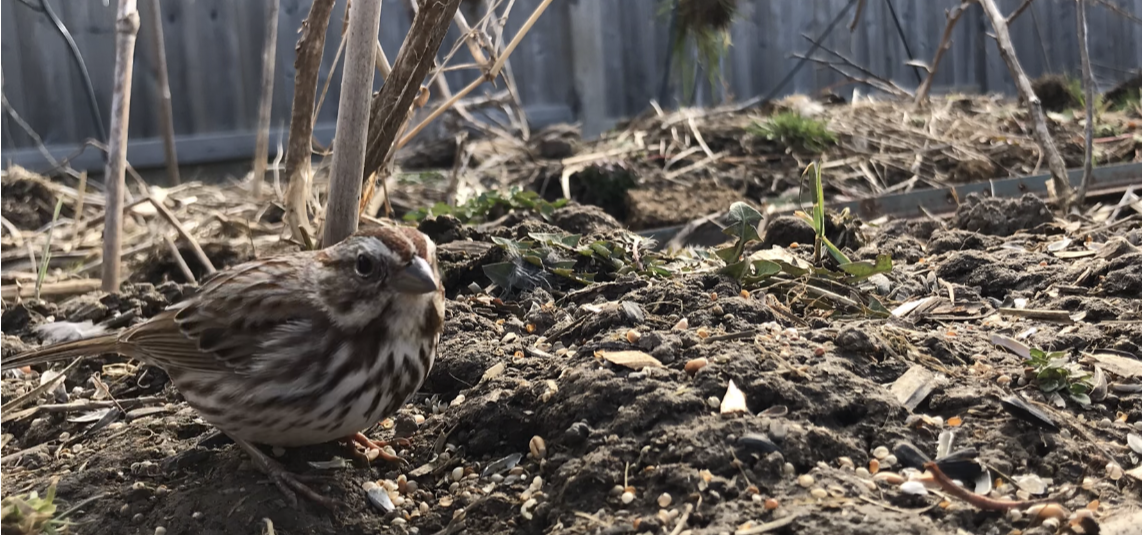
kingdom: Animalia
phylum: Chordata
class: Aves
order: Passeriformes
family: Passerellidae
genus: Melospiza
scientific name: Melospiza melodia
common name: Song sparrow
